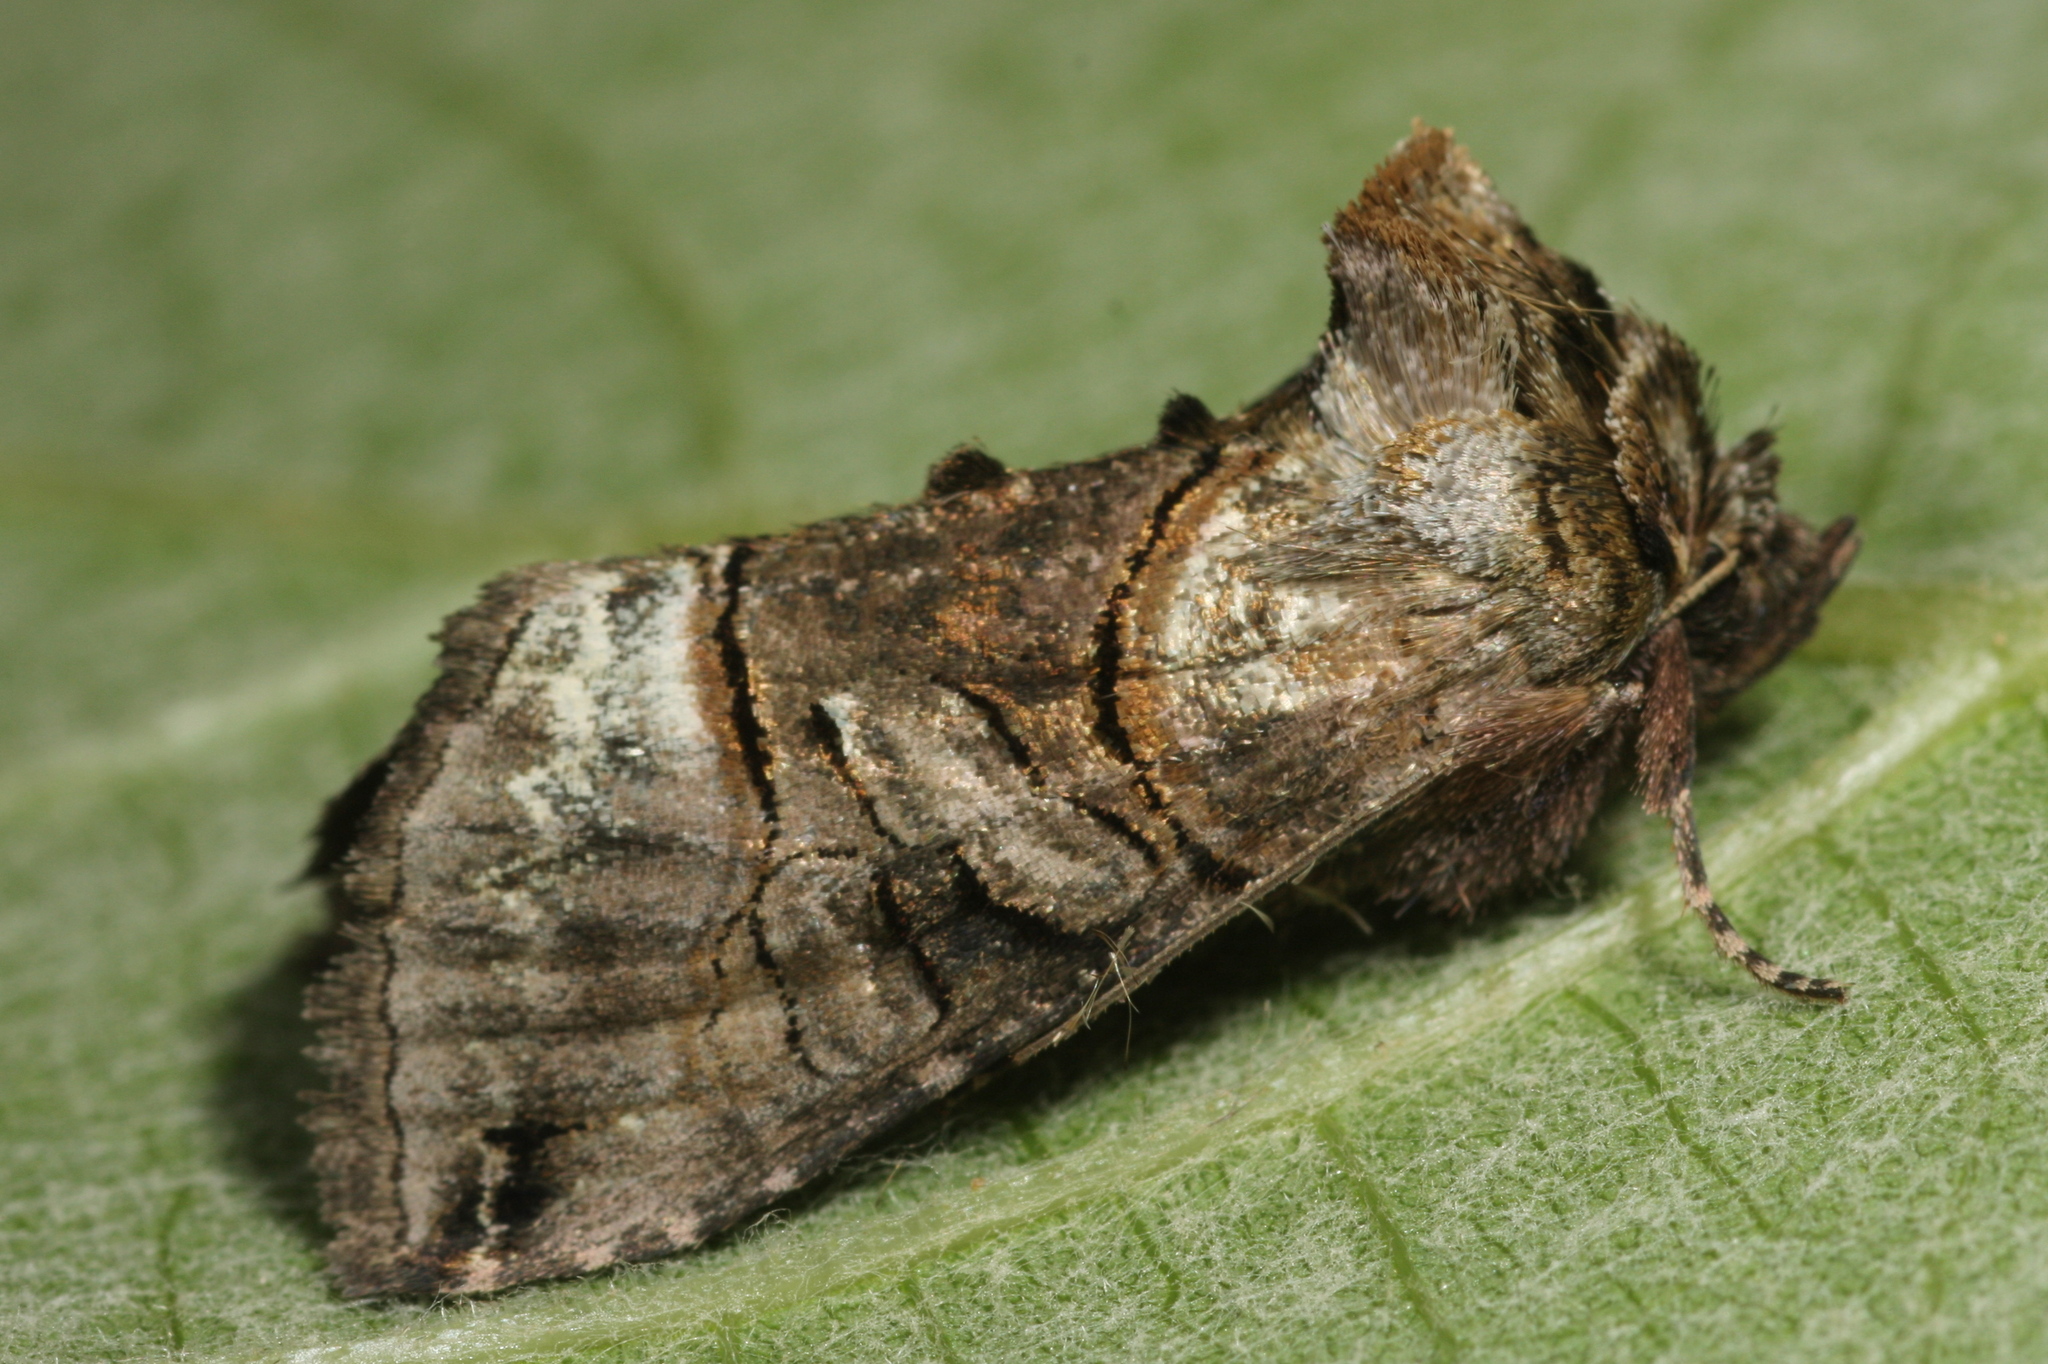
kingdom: Animalia
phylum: Arthropoda
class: Insecta
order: Lepidoptera
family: Noctuidae
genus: Abrostola
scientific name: Abrostola tripartita
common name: Spectacle
